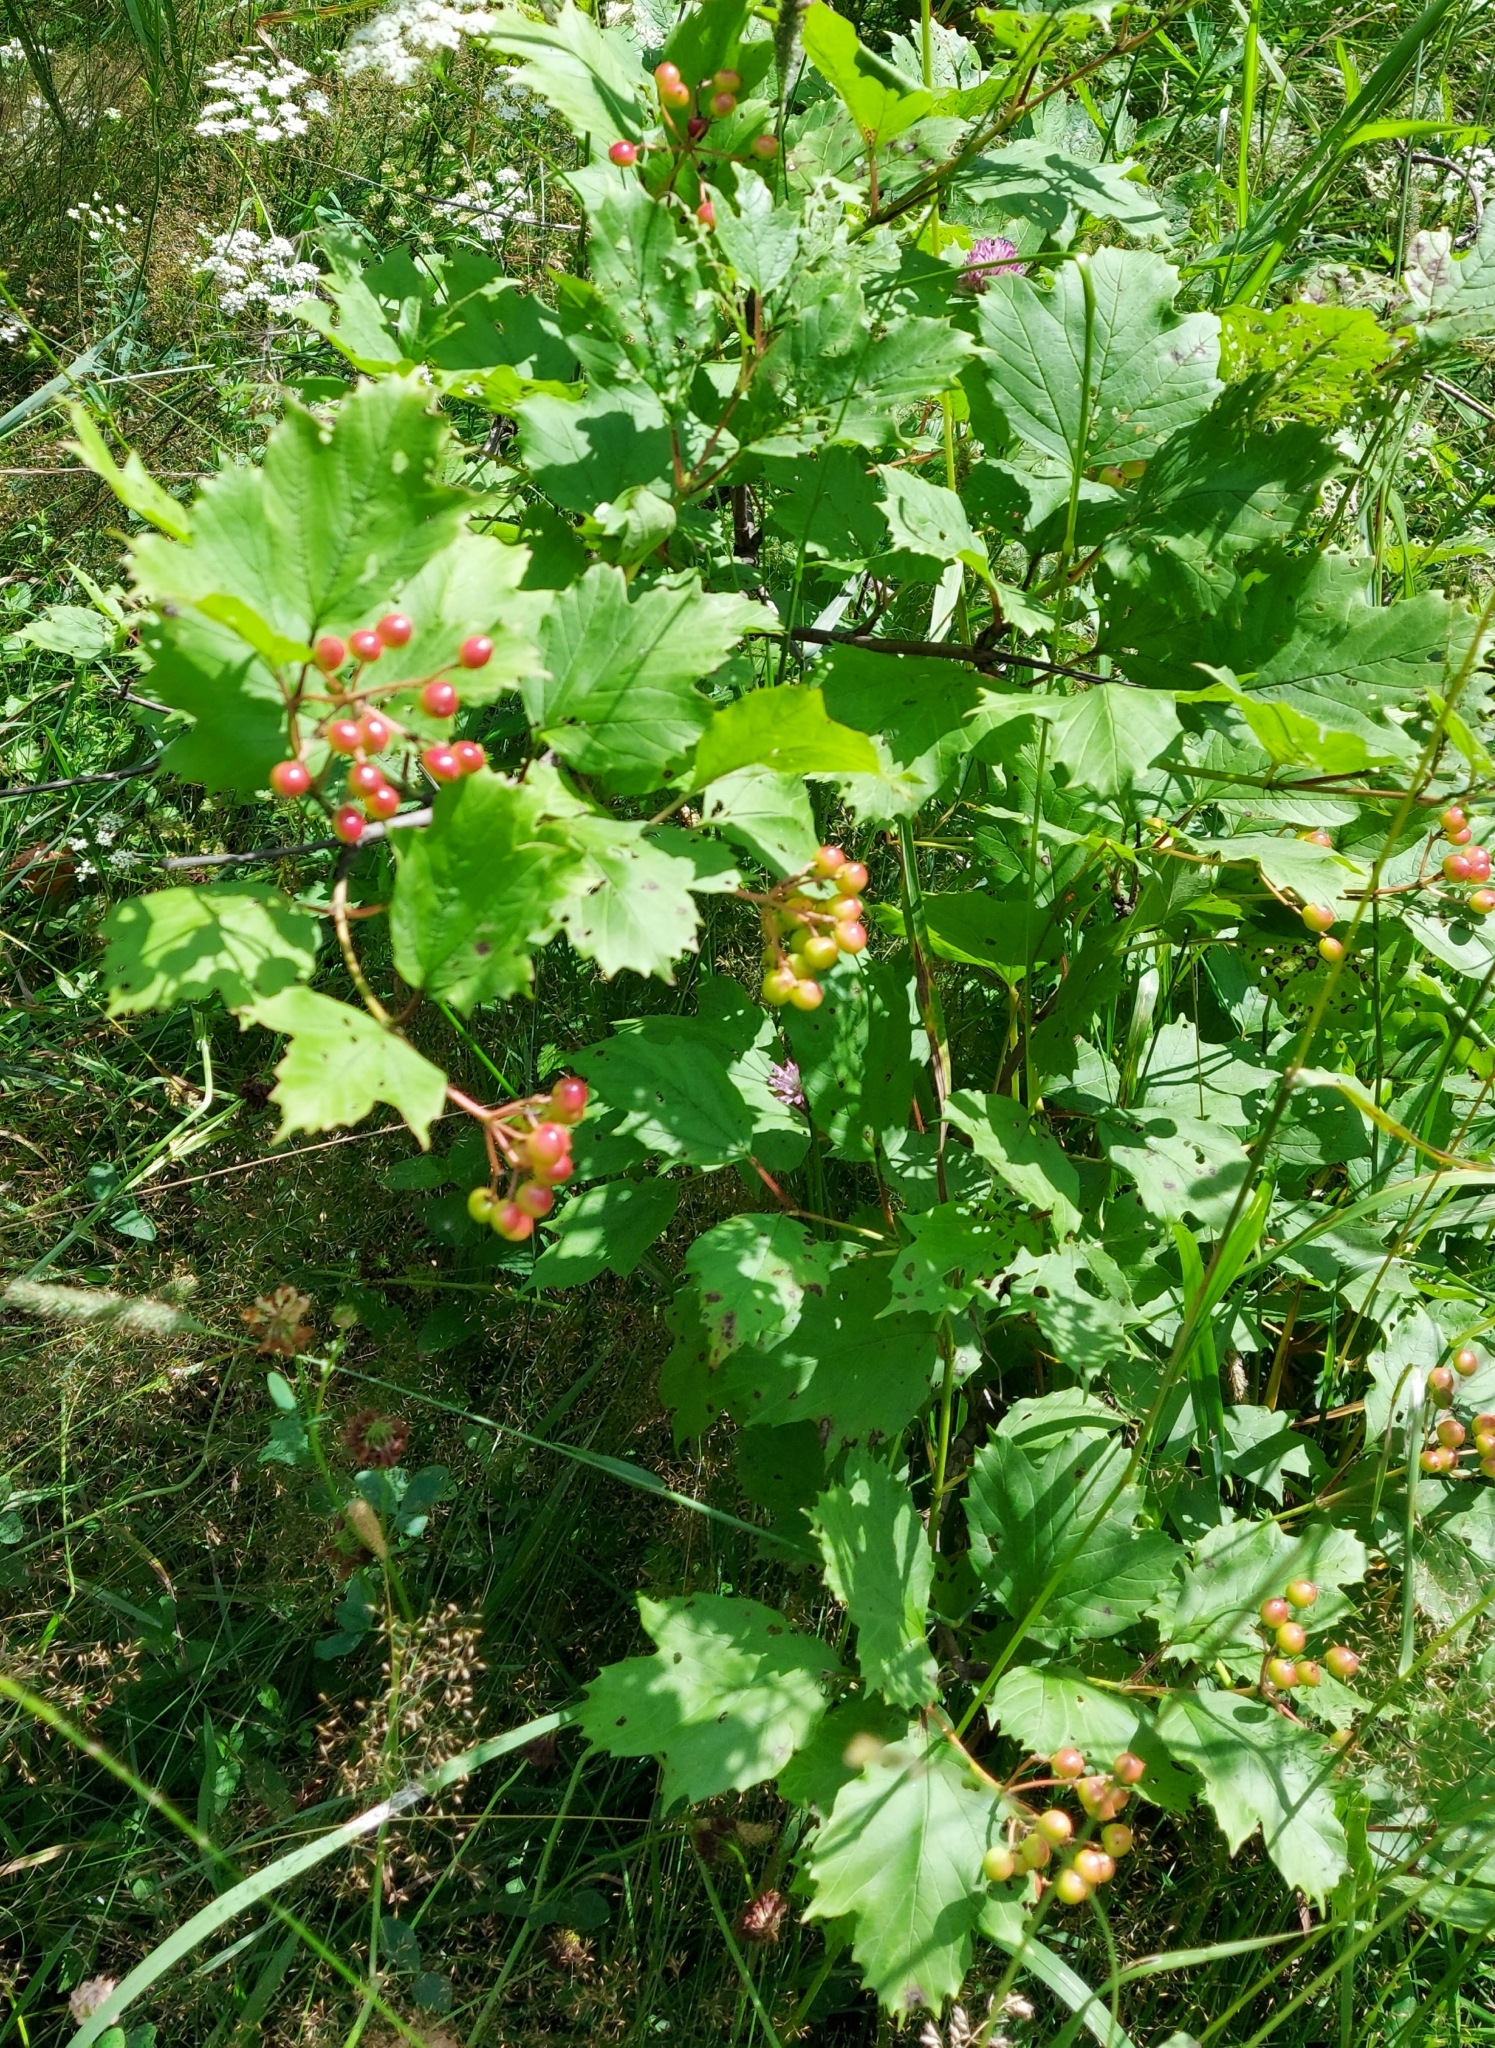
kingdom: Plantae
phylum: Tracheophyta
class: Magnoliopsida
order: Rosales
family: Rosaceae
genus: Crataegus
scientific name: Crataegus sanguinea
